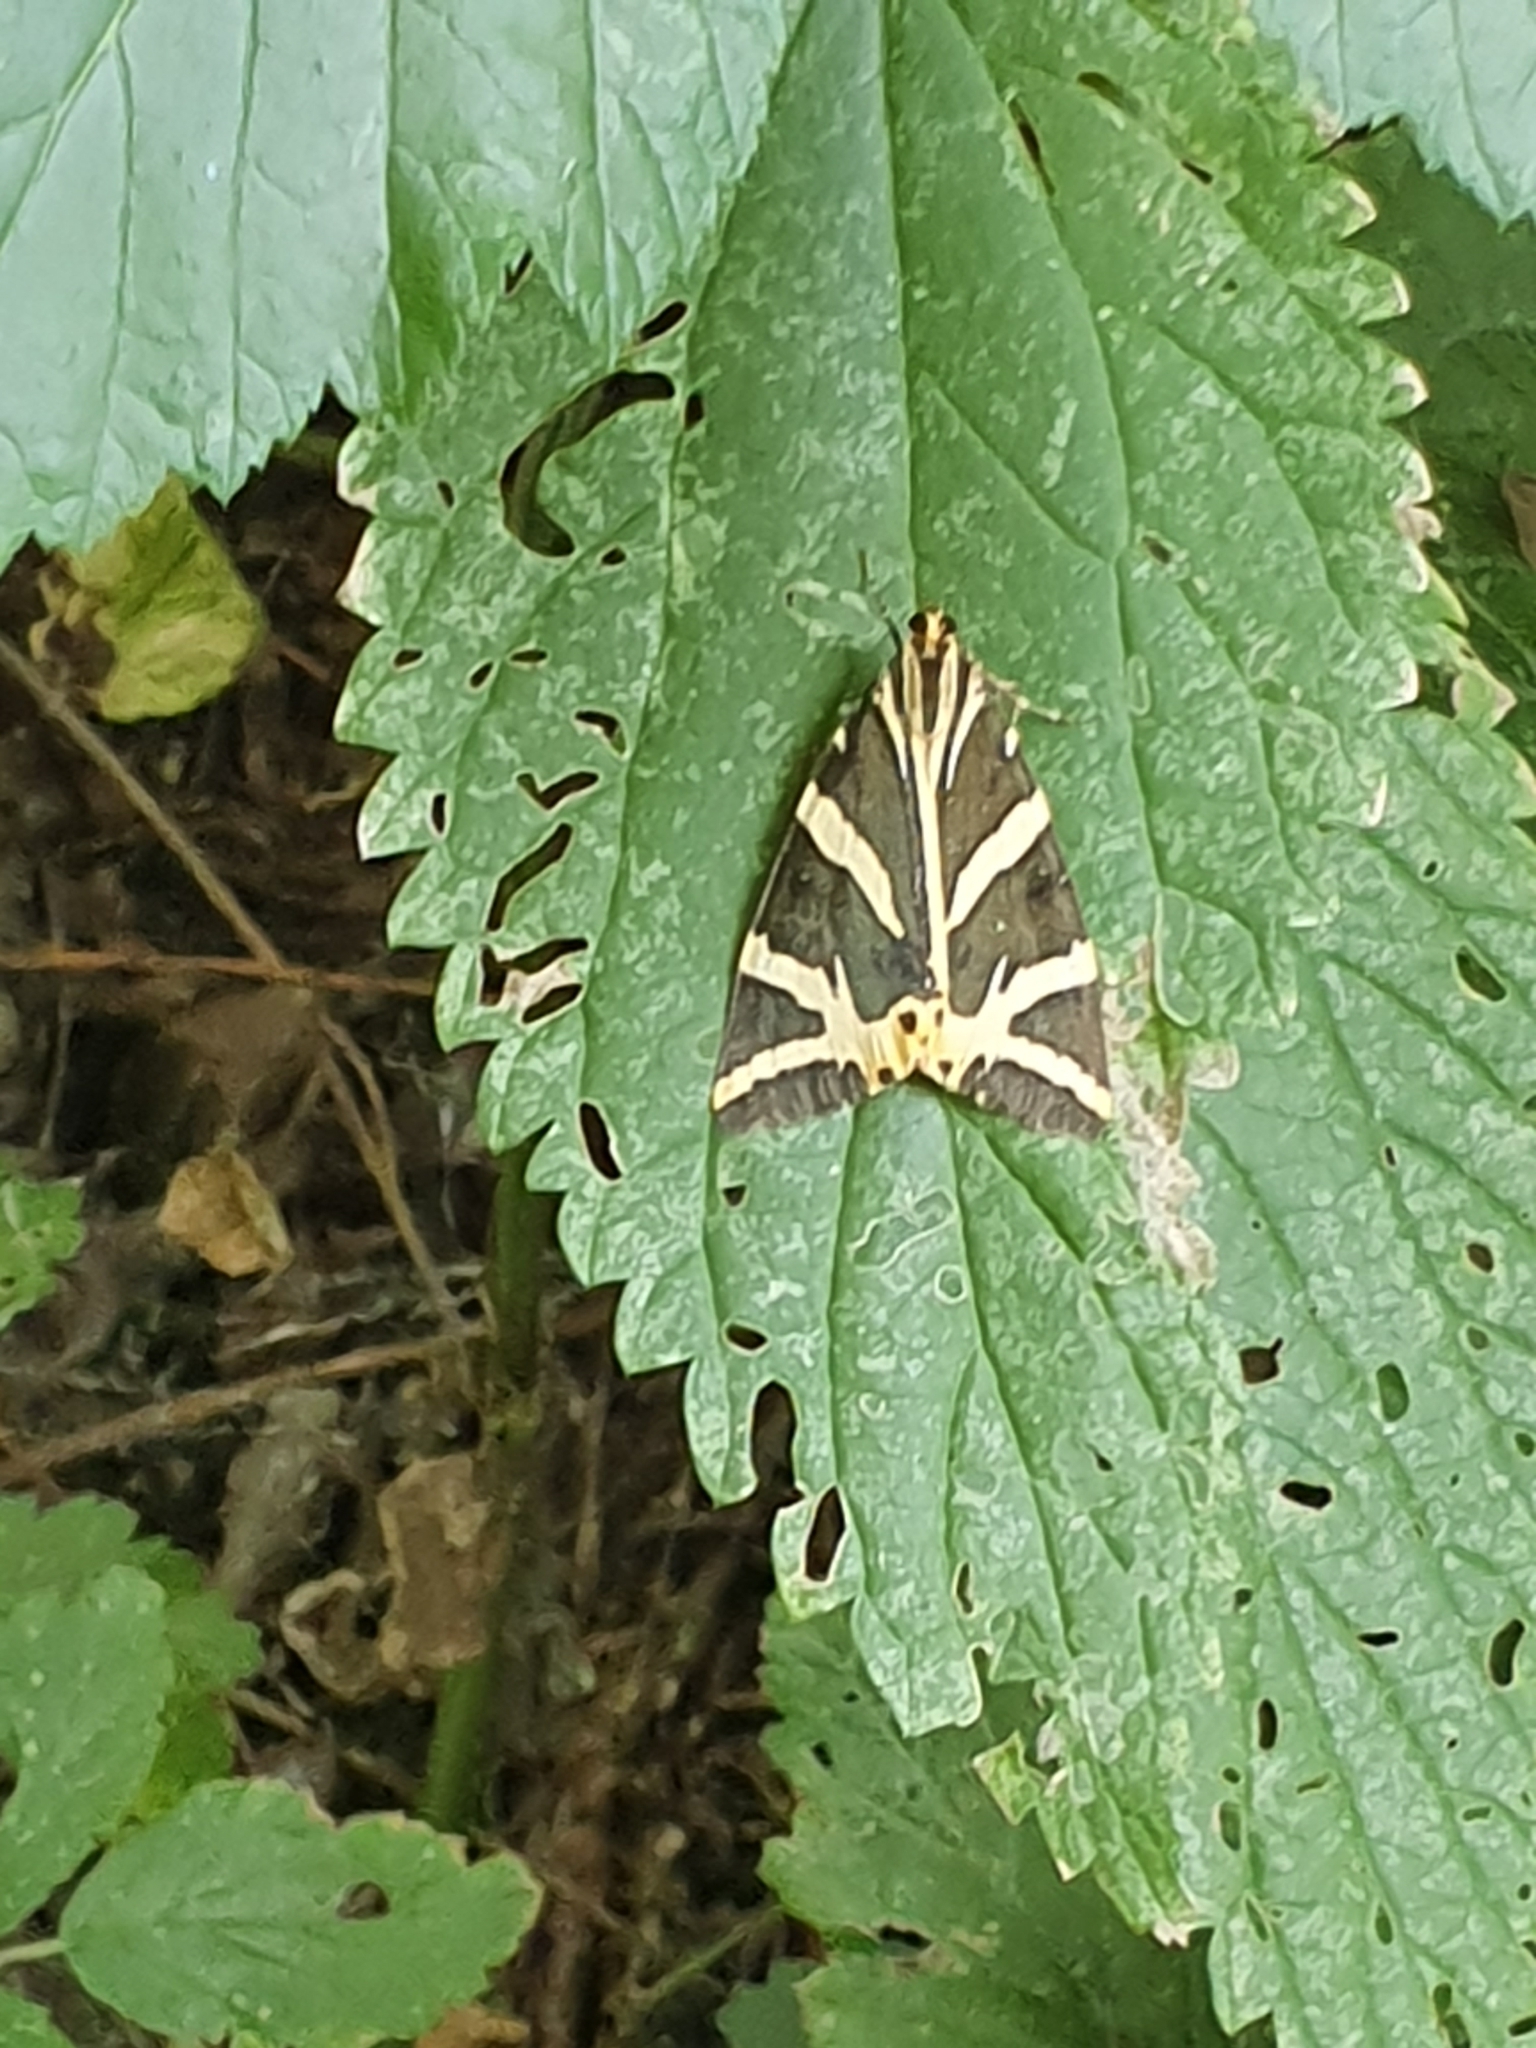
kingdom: Animalia
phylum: Arthropoda
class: Insecta
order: Lepidoptera
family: Erebidae
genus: Euplagia
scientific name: Euplagia quadripunctaria
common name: Jersey tiger
